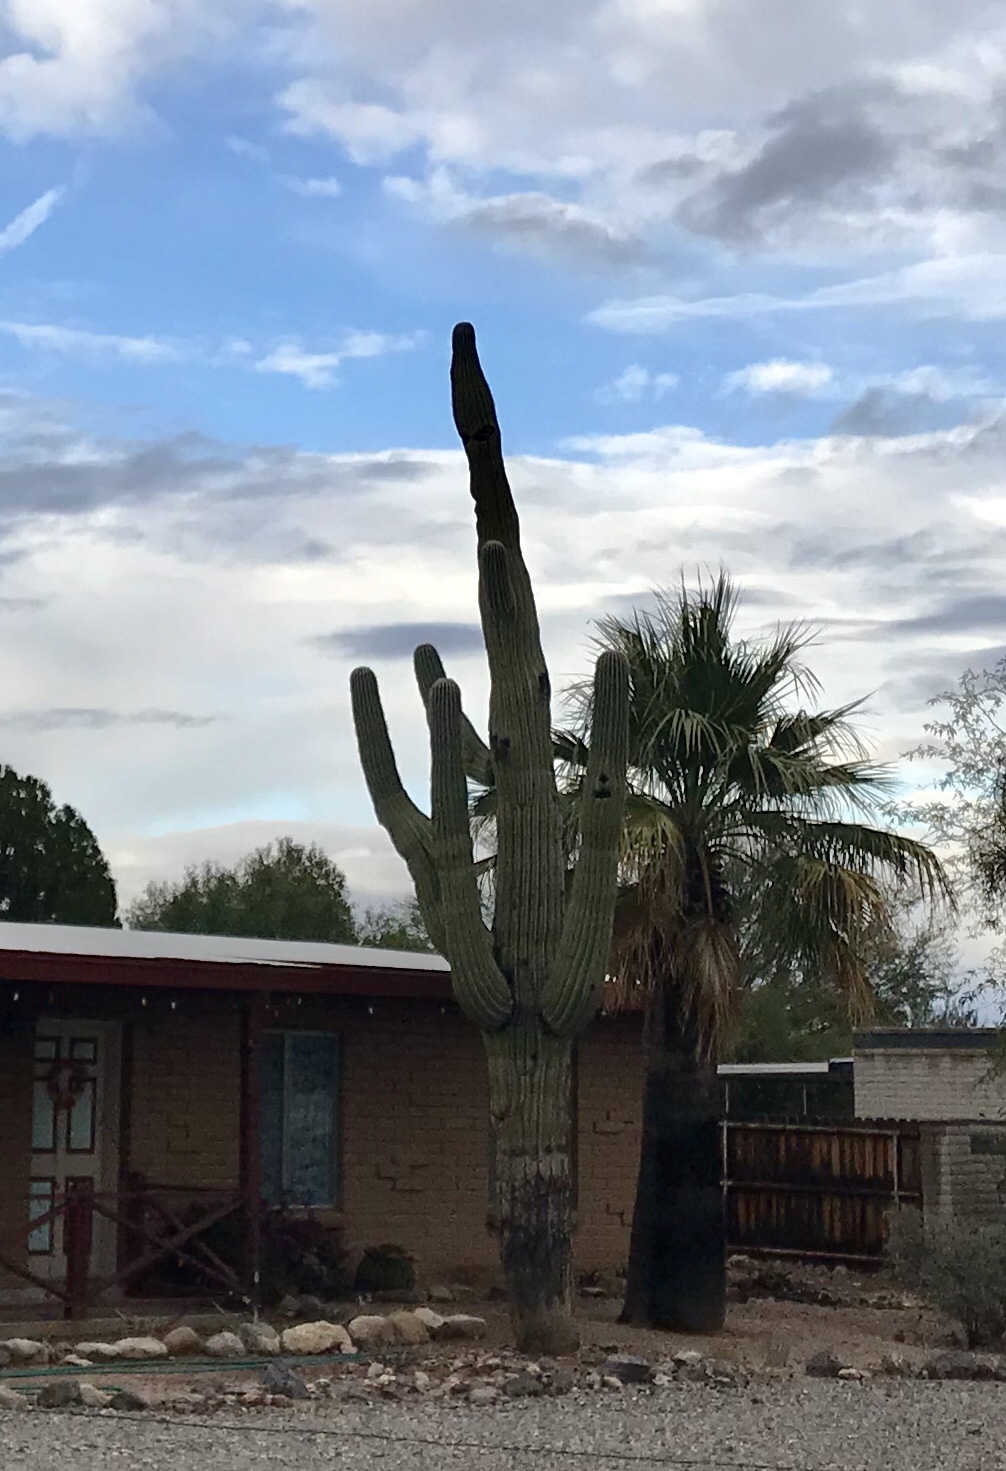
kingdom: Plantae
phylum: Tracheophyta
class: Magnoliopsida
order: Caryophyllales
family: Cactaceae
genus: Carnegiea
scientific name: Carnegiea gigantea
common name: Saguaro
